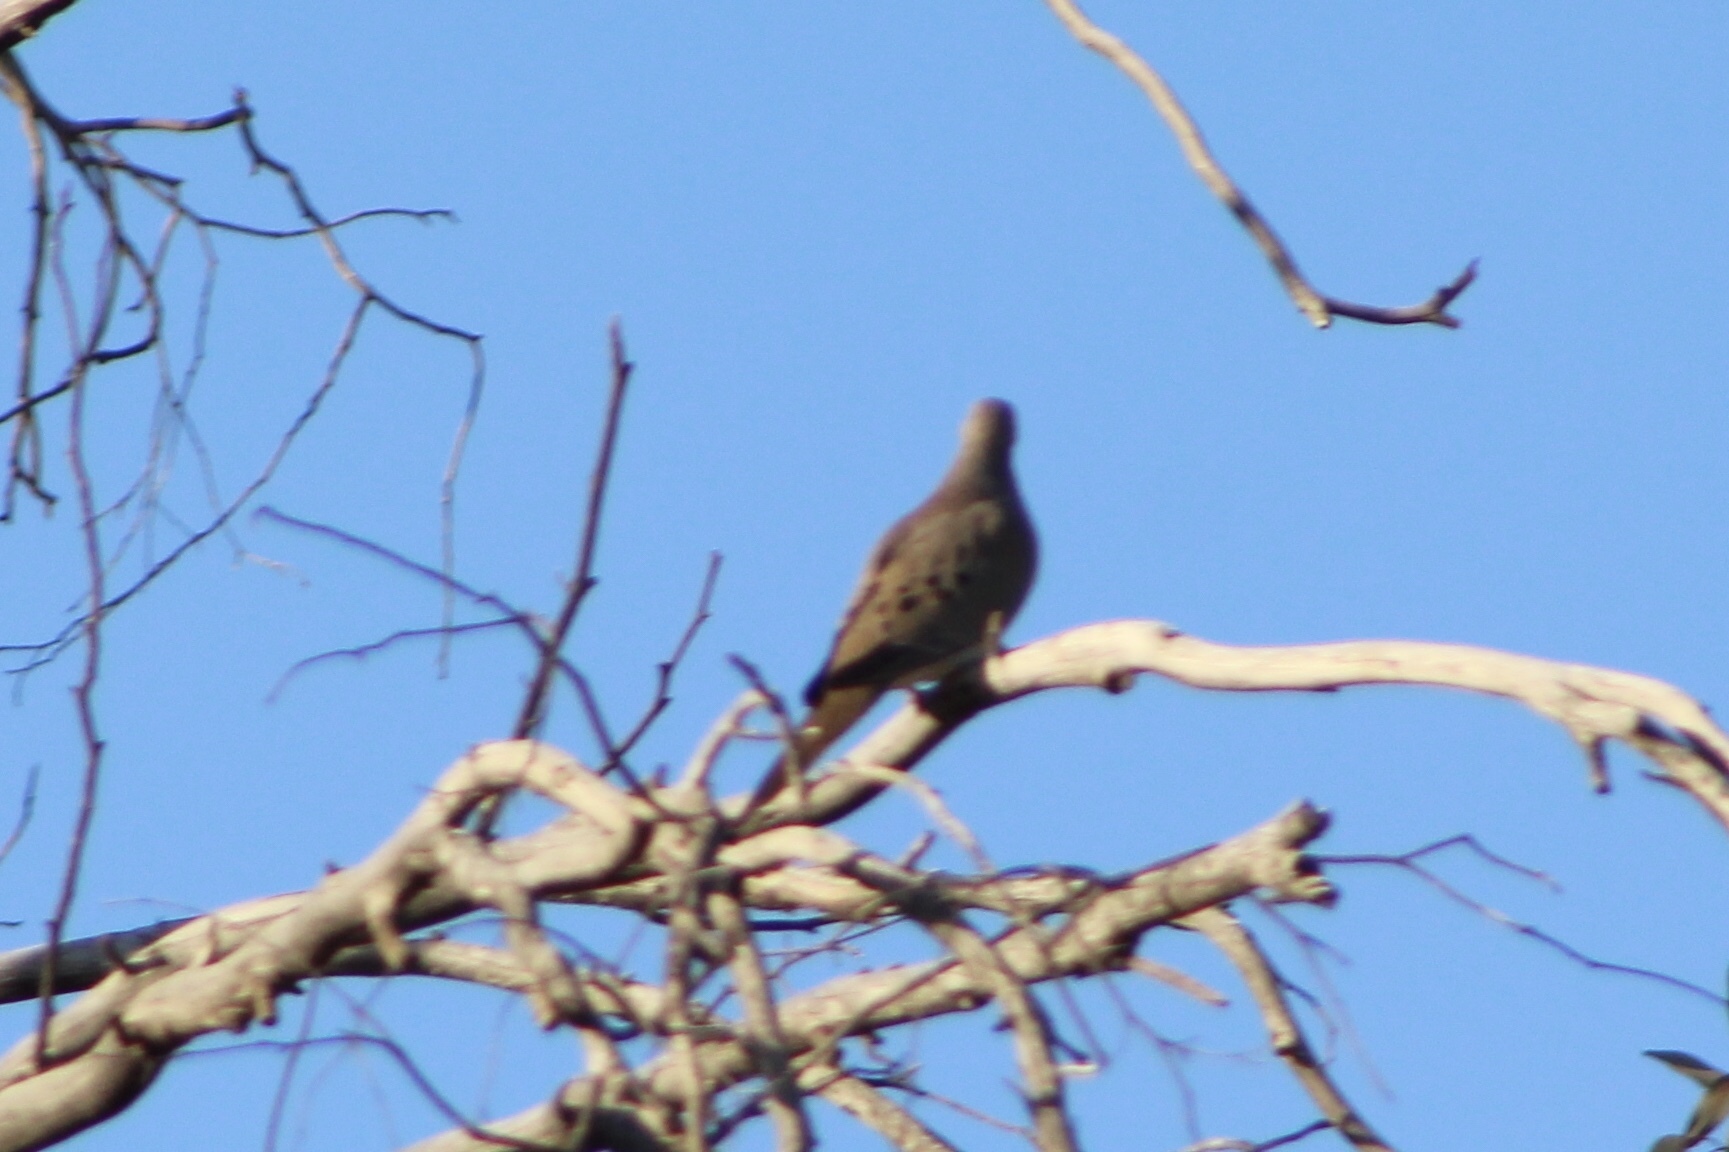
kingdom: Animalia
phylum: Chordata
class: Aves
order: Columbiformes
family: Columbidae
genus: Zenaida
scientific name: Zenaida macroura
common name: Mourning dove
